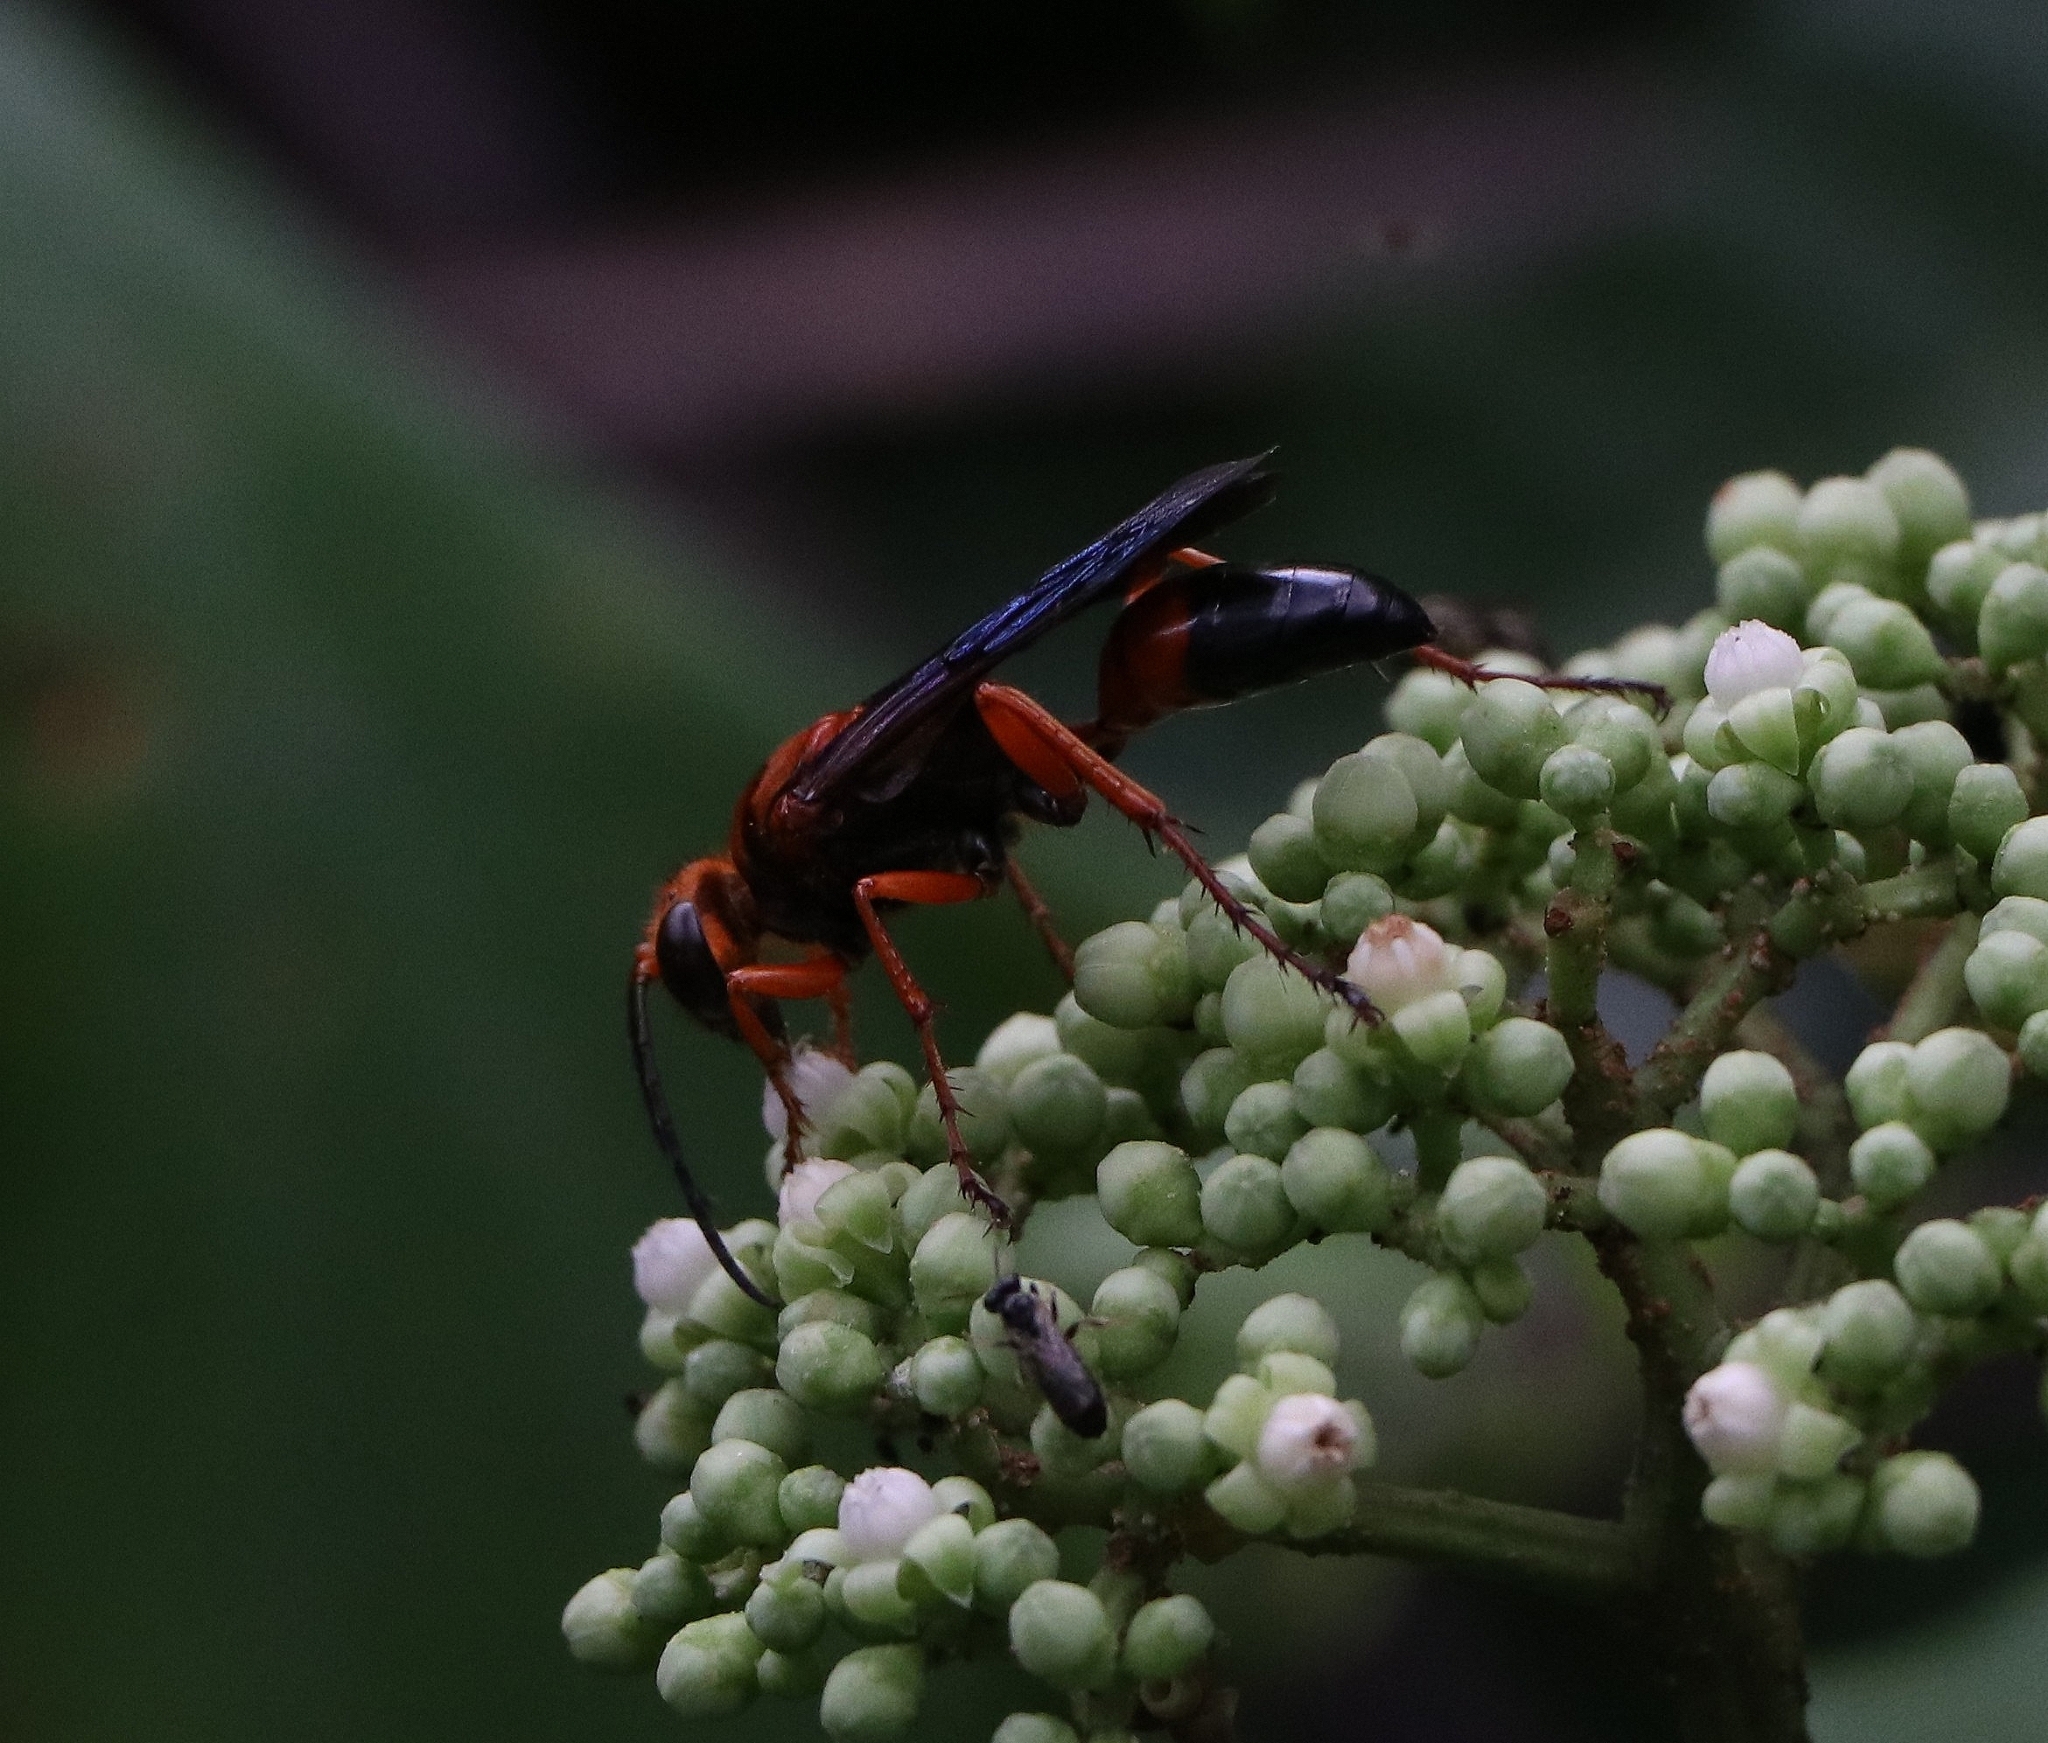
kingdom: Animalia
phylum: Arthropoda
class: Insecta
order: Hymenoptera
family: Sphecidae
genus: Sphex
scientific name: Sphex sericeus
